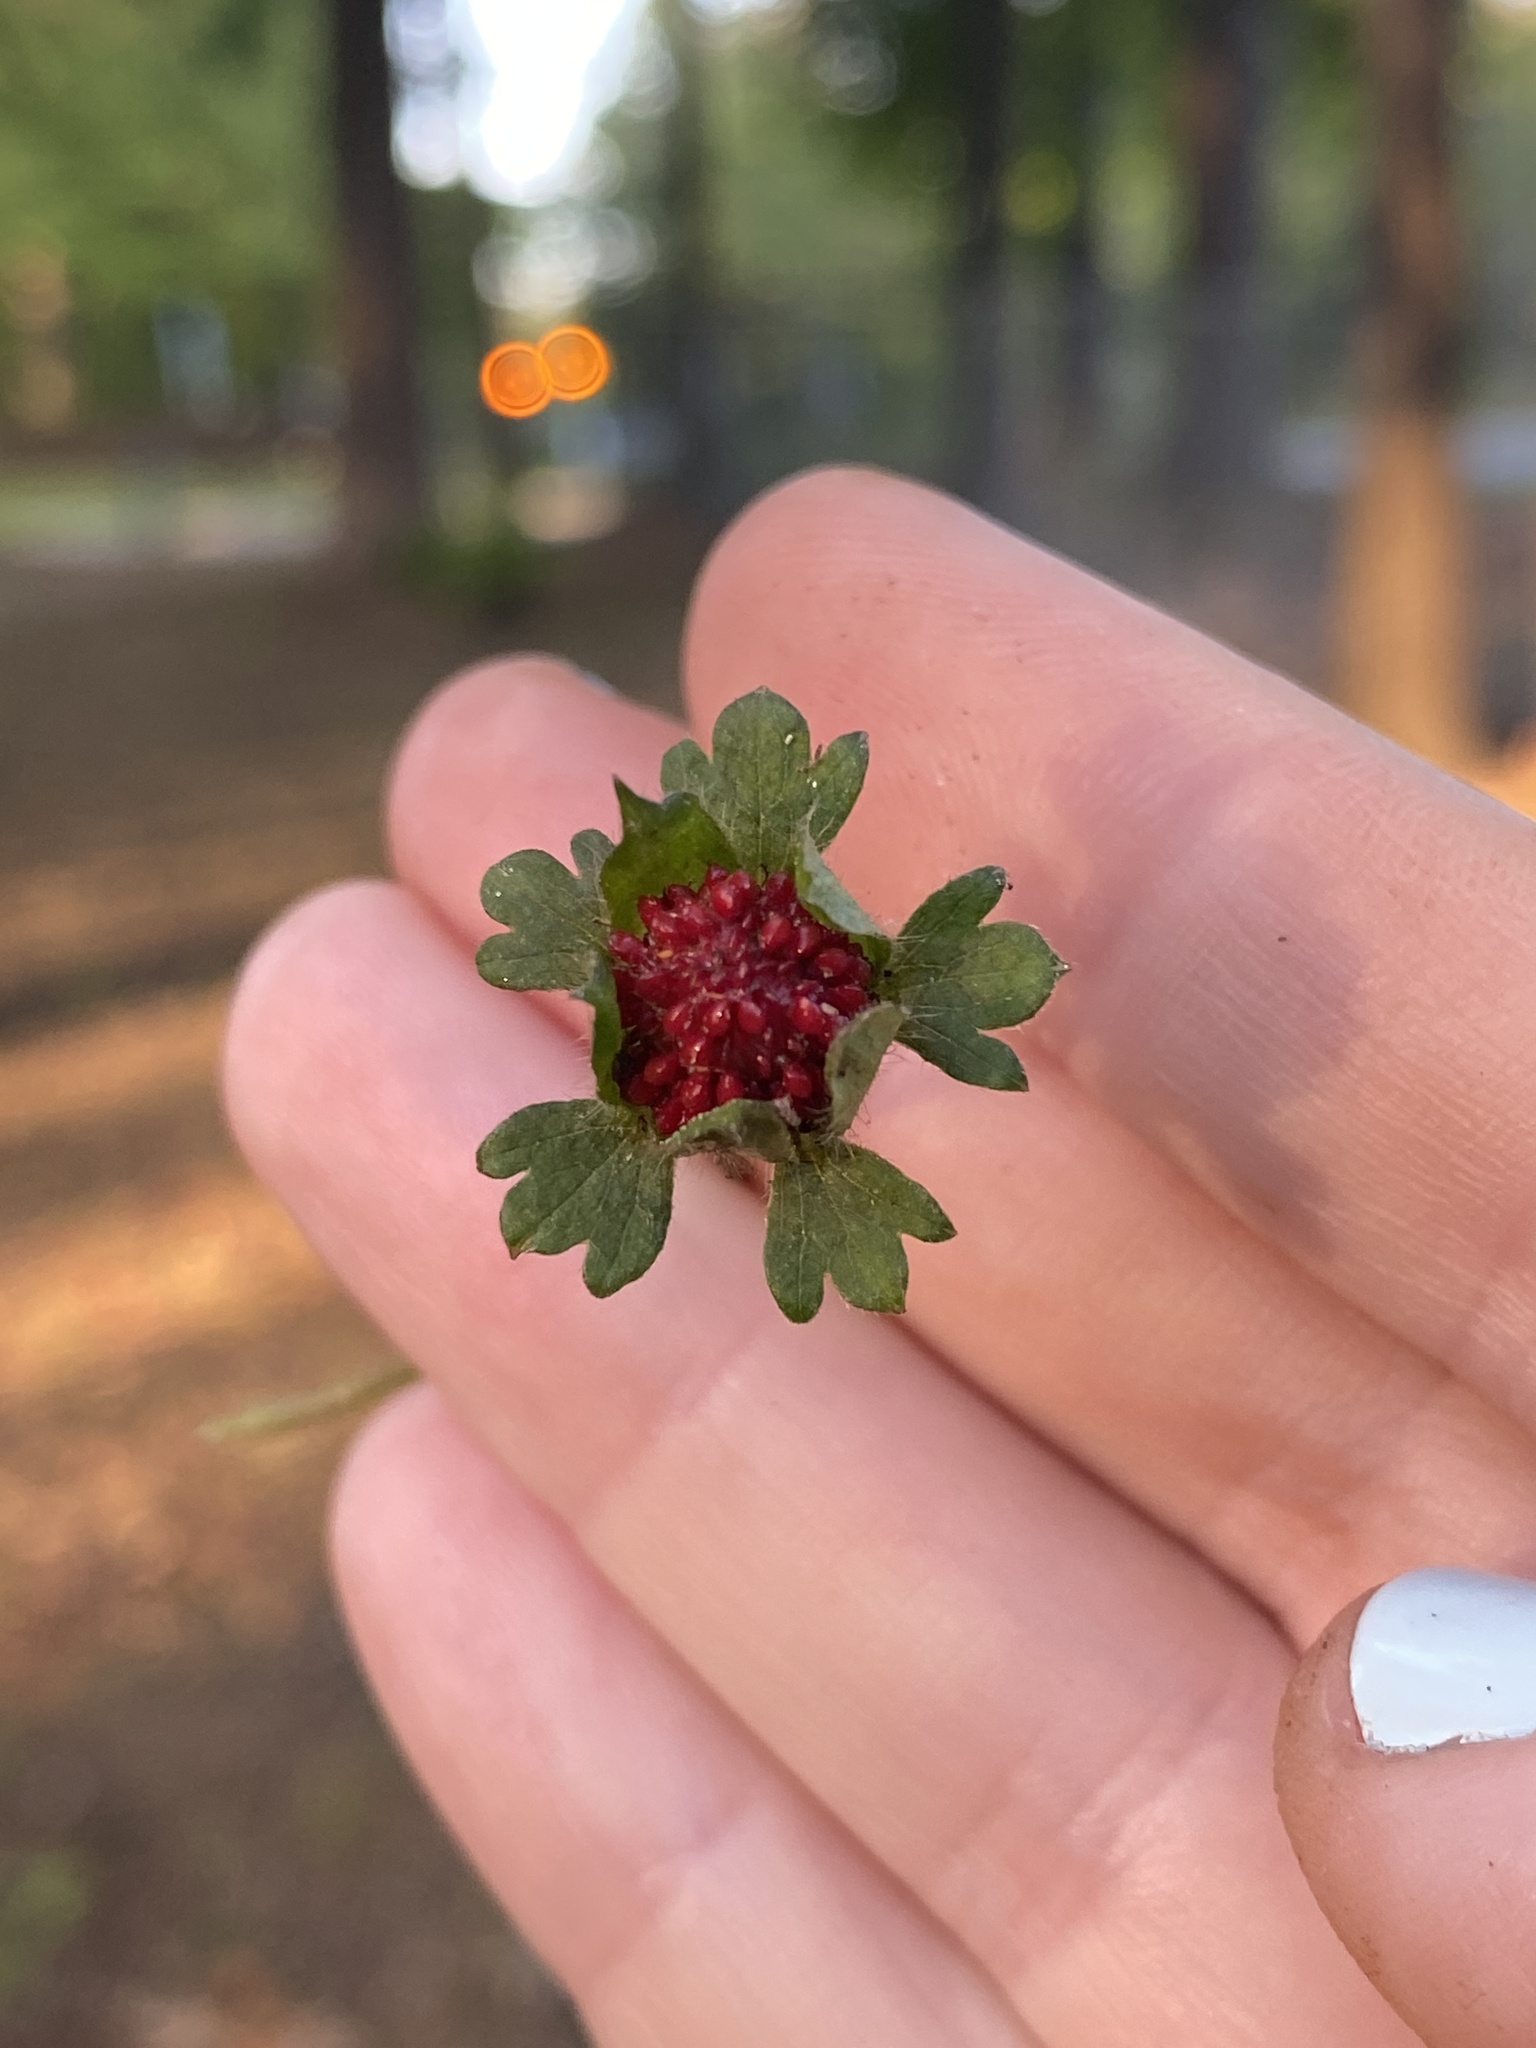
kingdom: Plantae
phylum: Tracheophyta
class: Magnoliopsida
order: Rosales
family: Rosaceae
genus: Potentilla
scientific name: Potentilla indica
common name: Yellow-flowered strawberry
